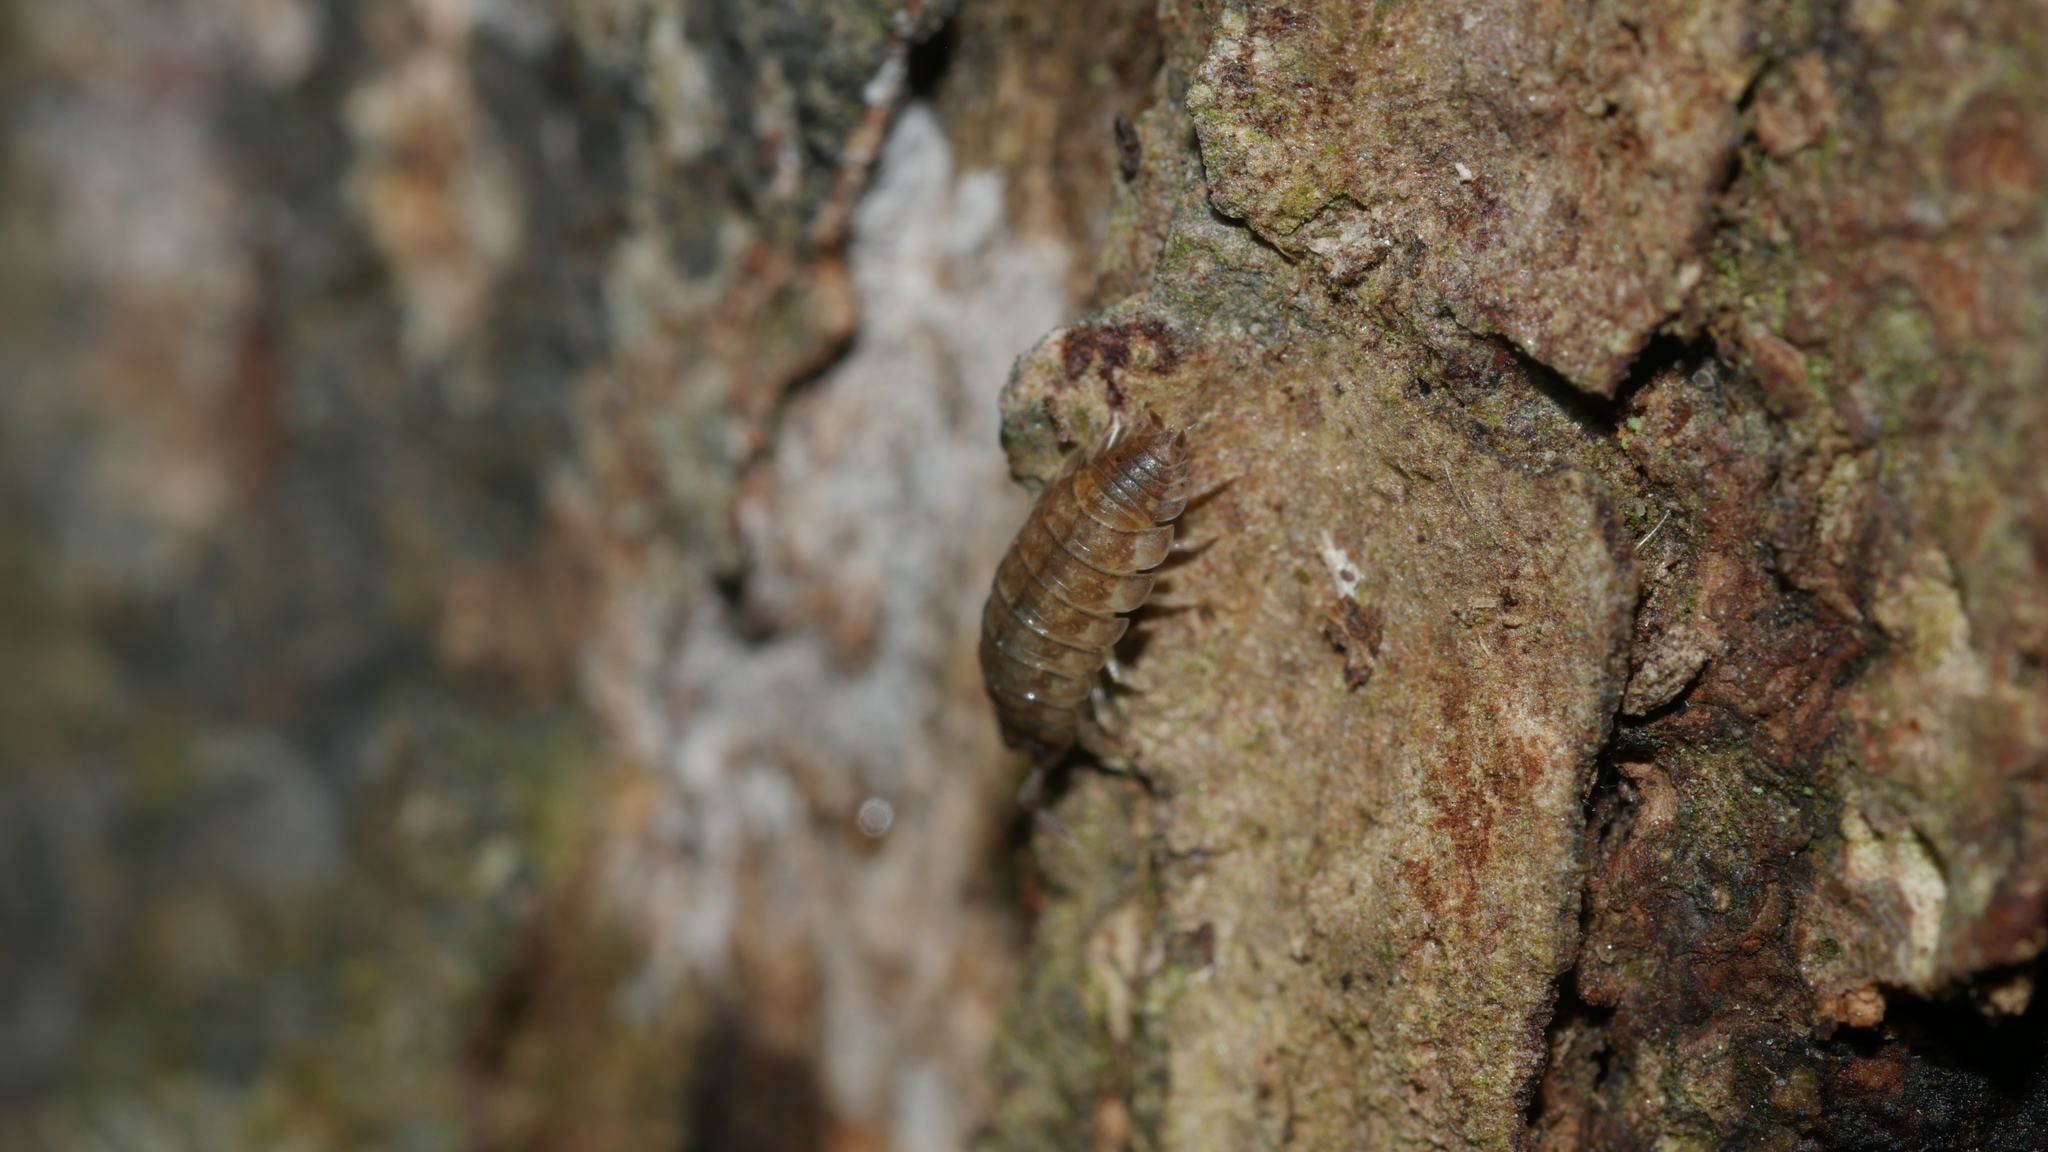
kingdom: Animalia
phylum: Arthropoda
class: Malacostraca
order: Isopoda
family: Porcellionidae
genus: Porcellio
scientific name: Porcellio scaber
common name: Common rough woodlouse
